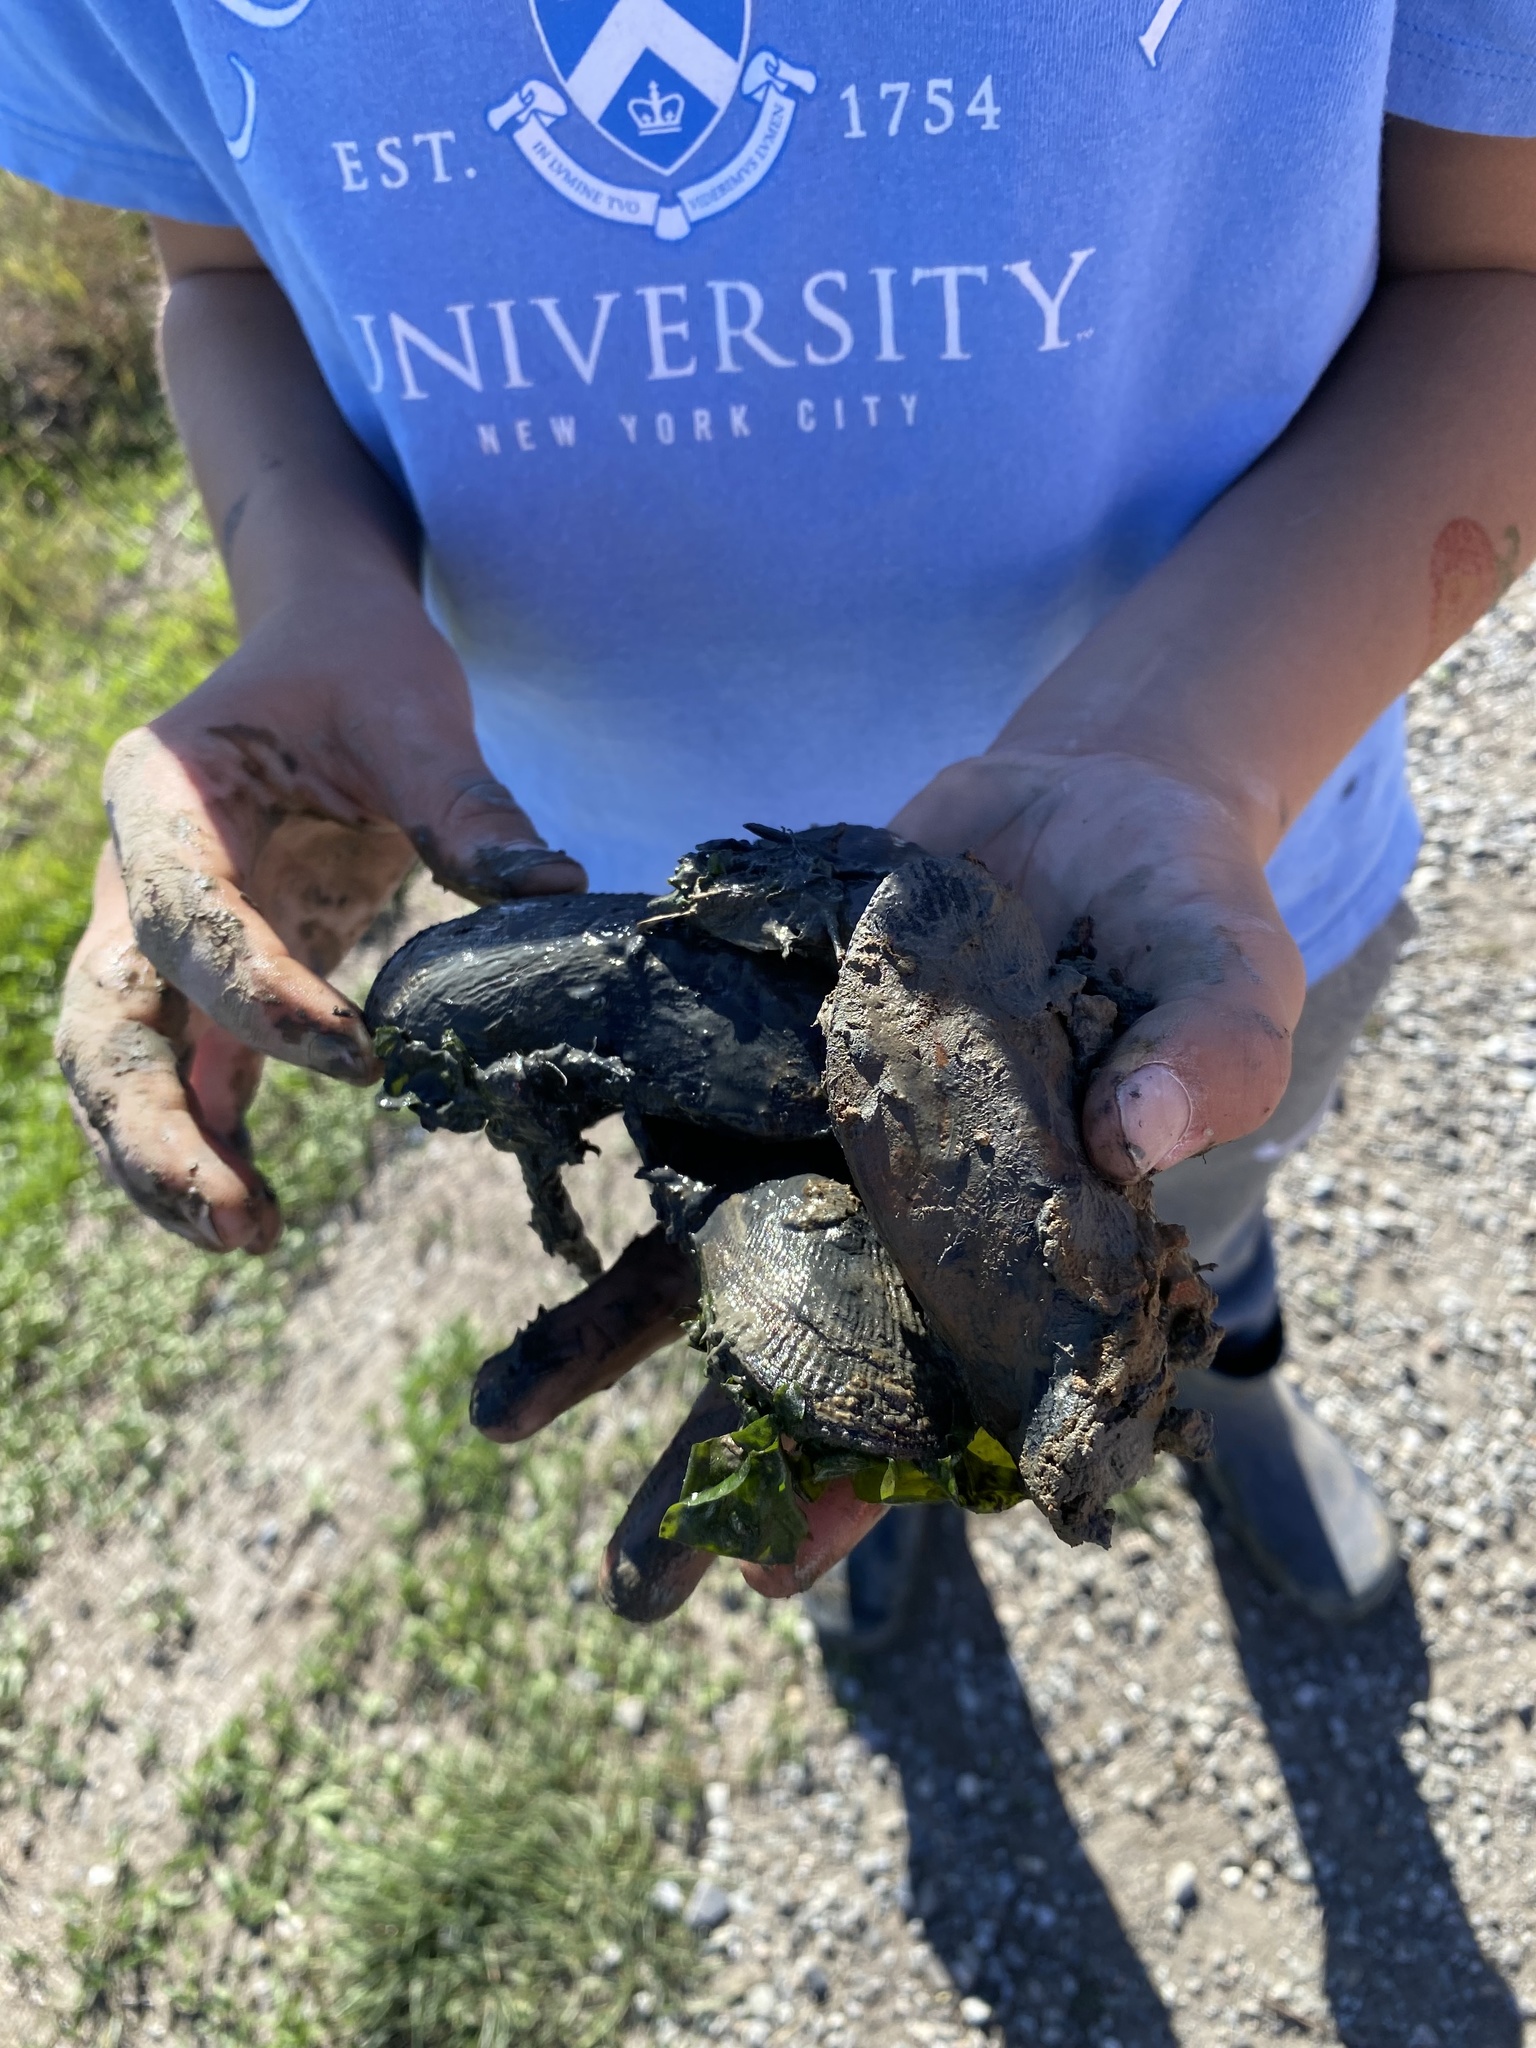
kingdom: Animalia
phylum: Mollusca
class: Bivalvia
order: Mytilida
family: Mytilidae
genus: Geukensia
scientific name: Geukensia demissa
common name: Ribbed mussel
